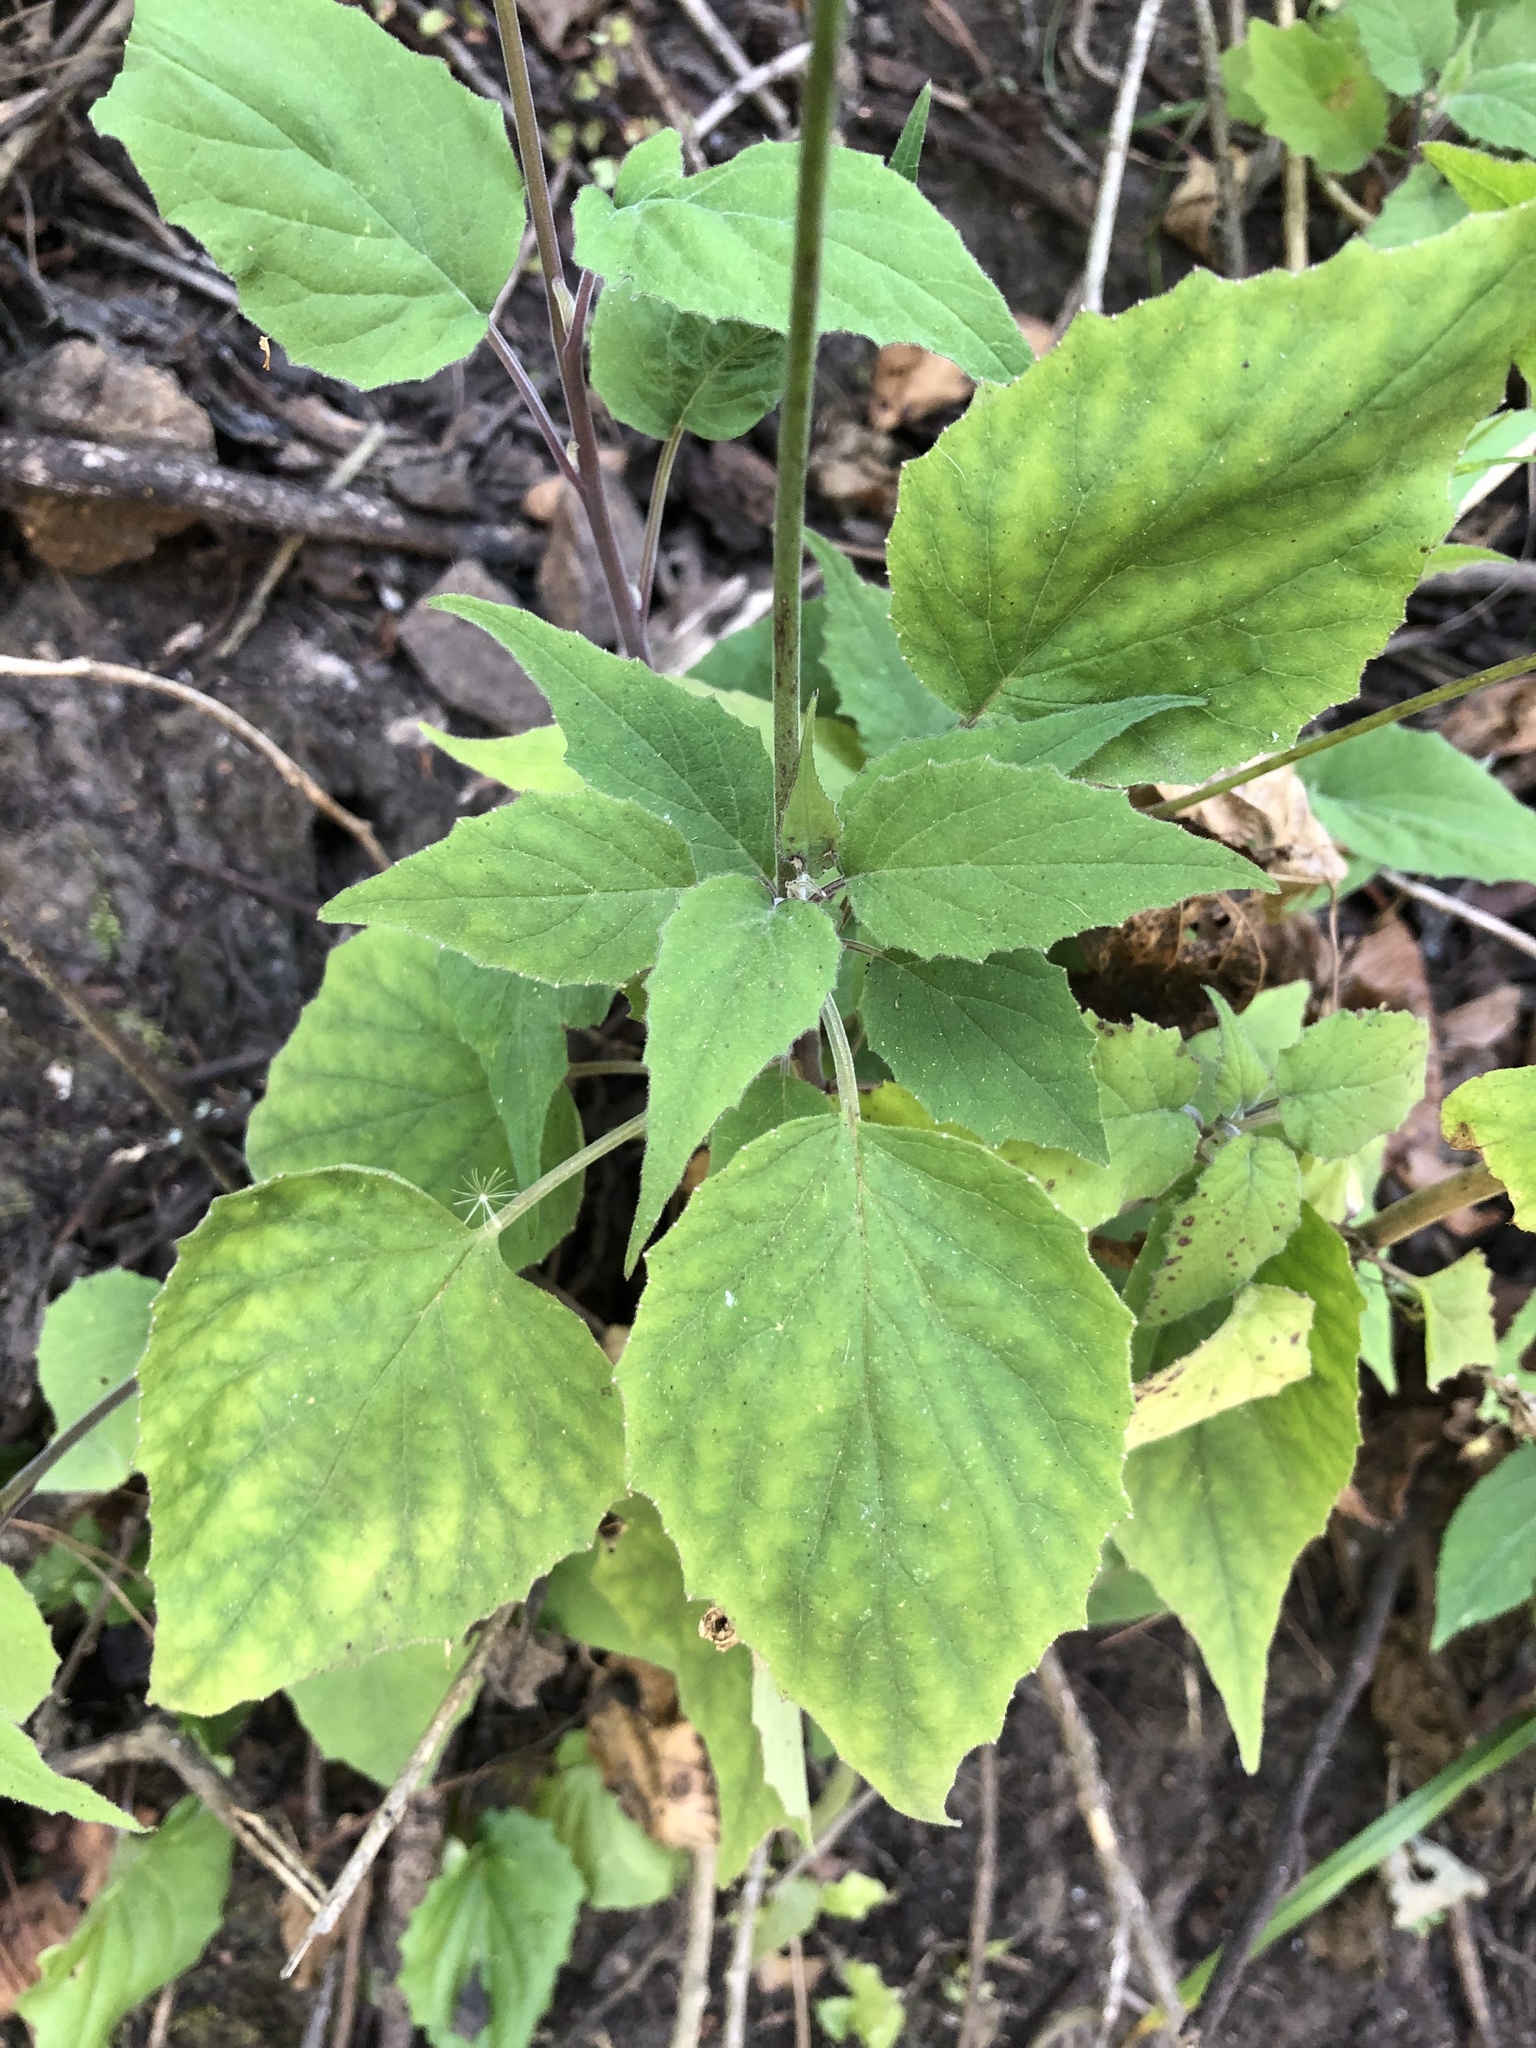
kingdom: Plantae
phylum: Tracheophyta
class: Magnoliopsida
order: Asterales
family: Campanulaceae
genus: Heterotoma
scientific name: Heterotoma lobelioides
